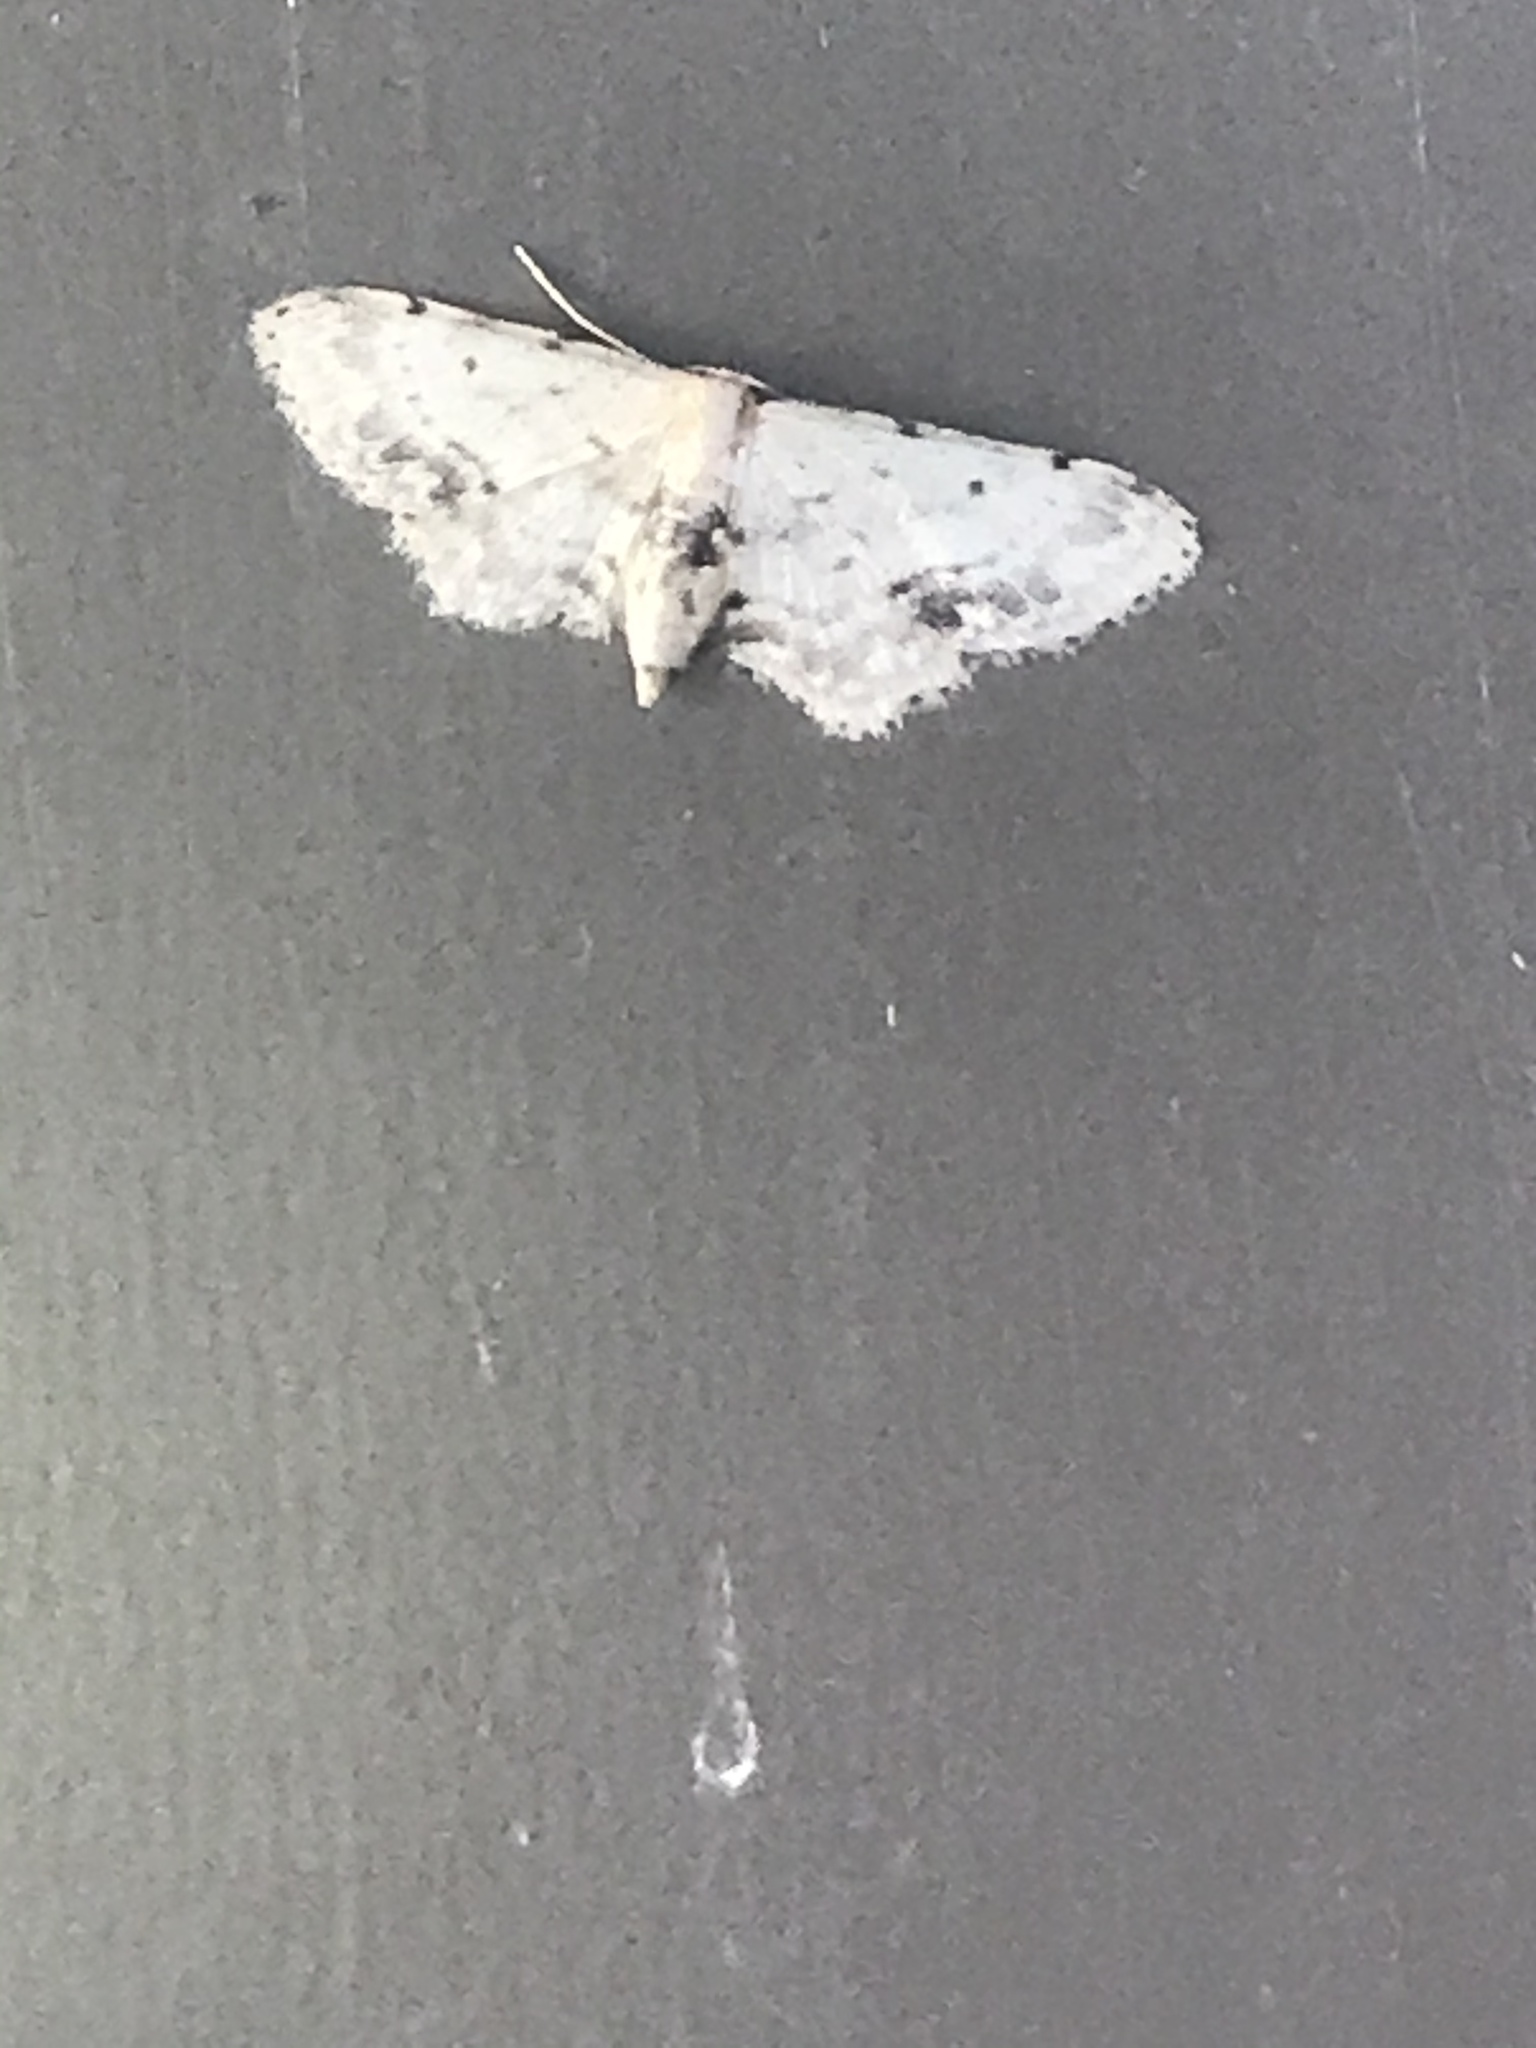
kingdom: Animalia
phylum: Arthropoda
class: Insecta
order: Lepidoptera
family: Geometridae
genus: Idaea
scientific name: Idaea dimidiata
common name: Single-dotted wave
